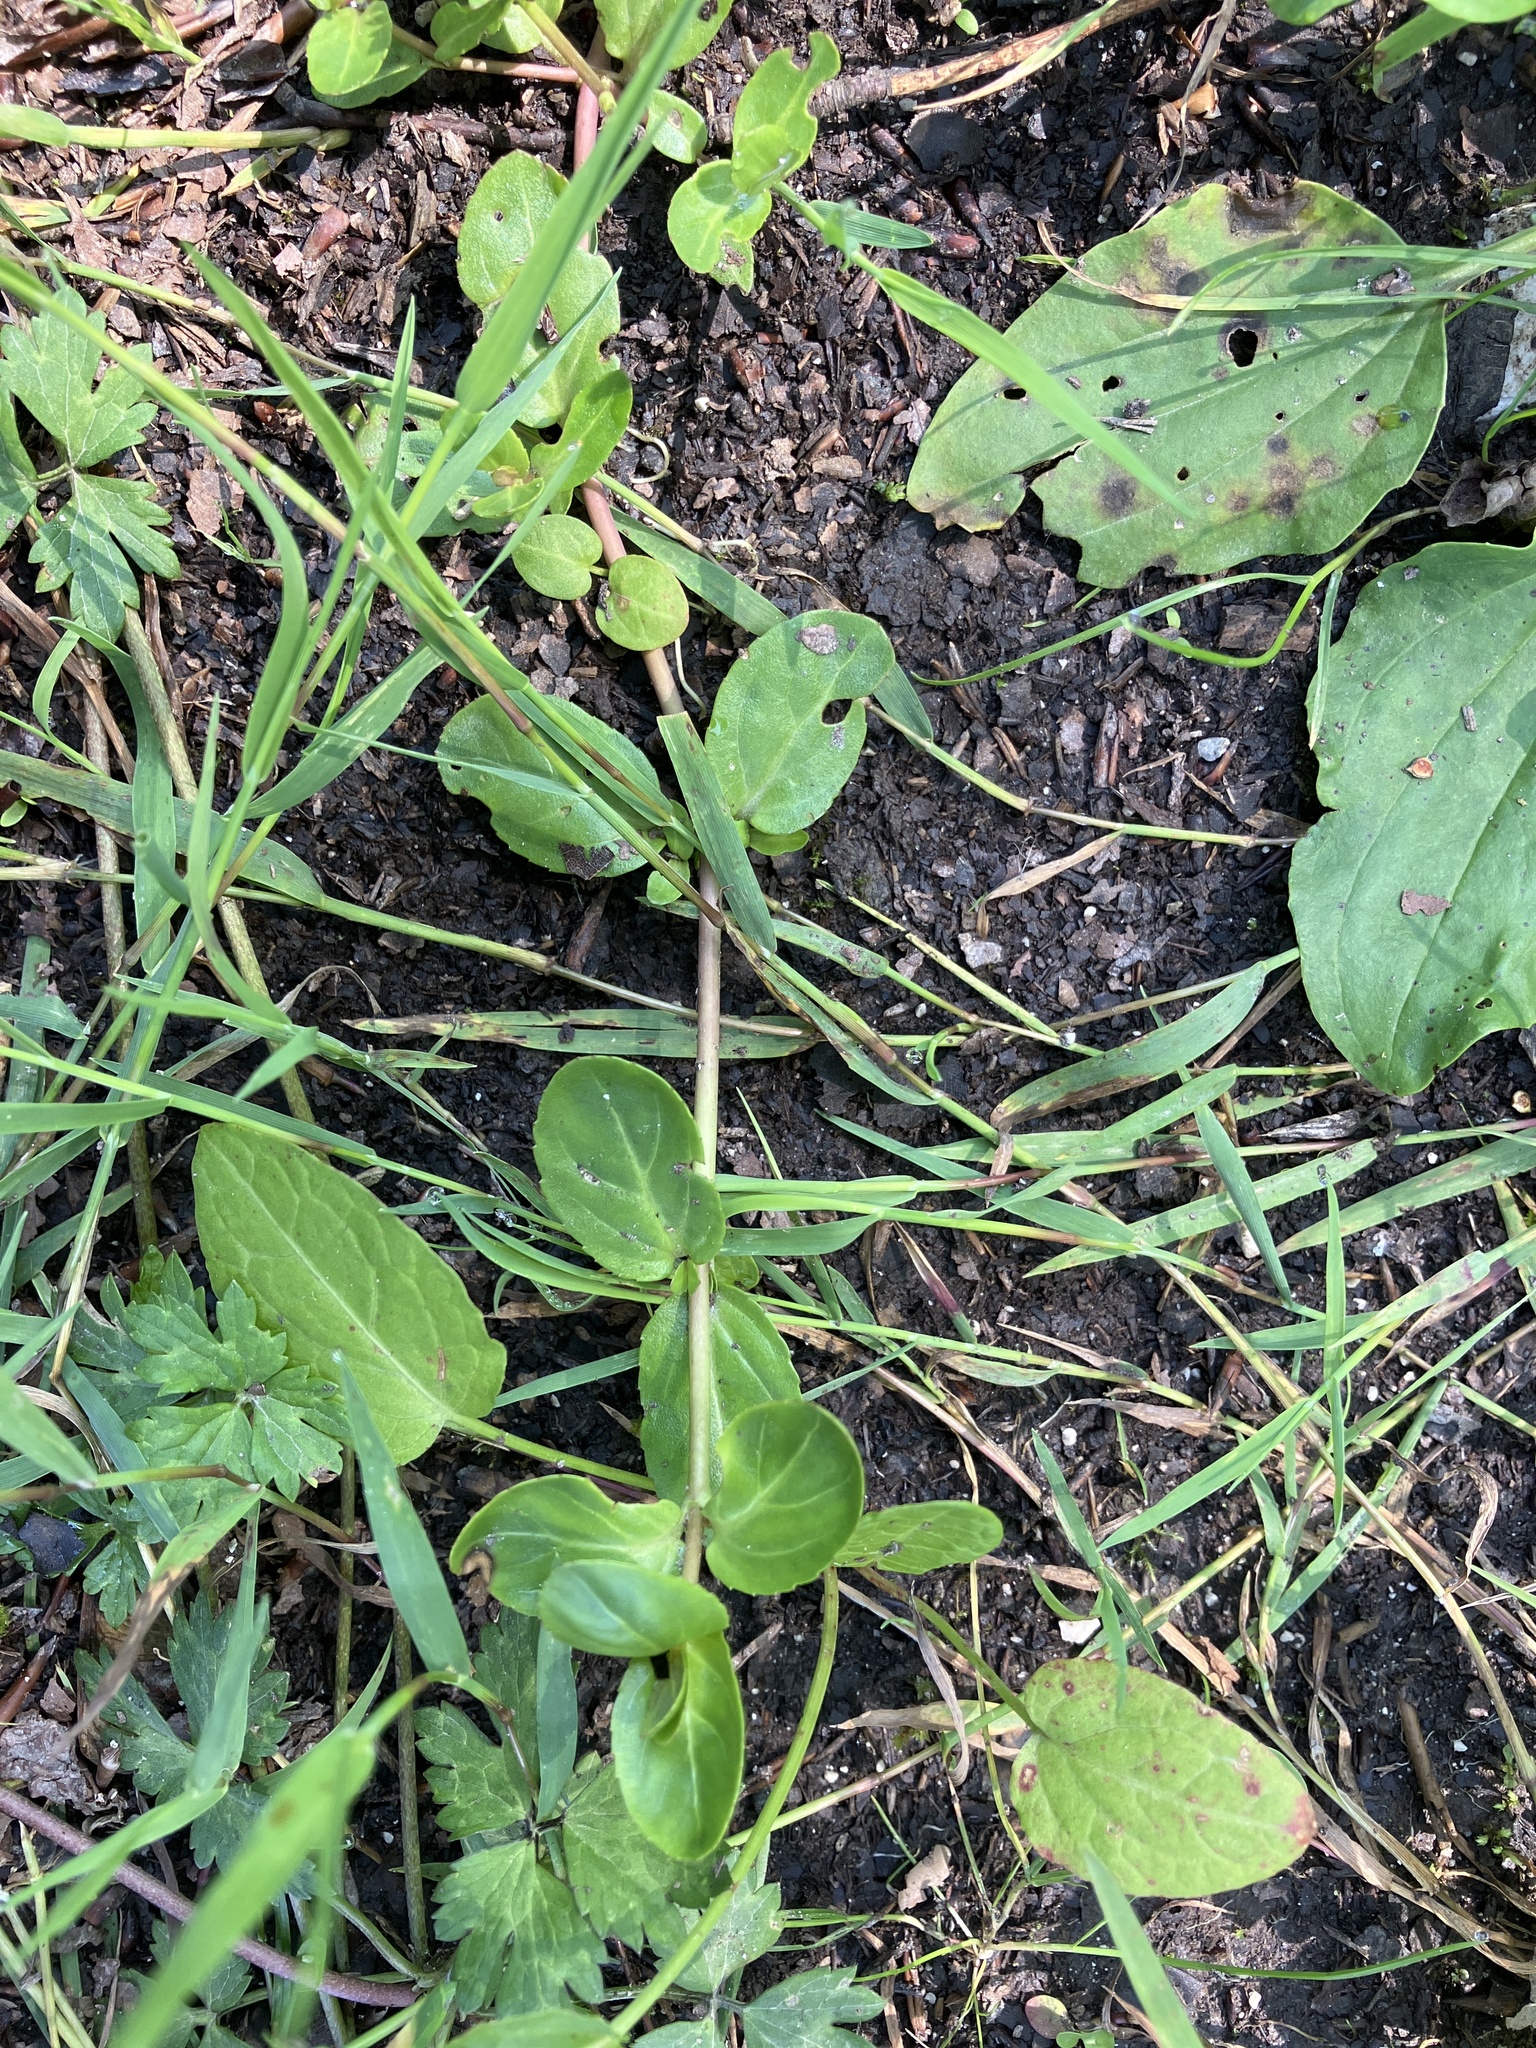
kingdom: Plantae
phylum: Tracheophyta
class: Magnoliopsida
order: Lamiales
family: Plantaginaceae
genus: Veronica
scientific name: Veronica beccabunga
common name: Brooklime
